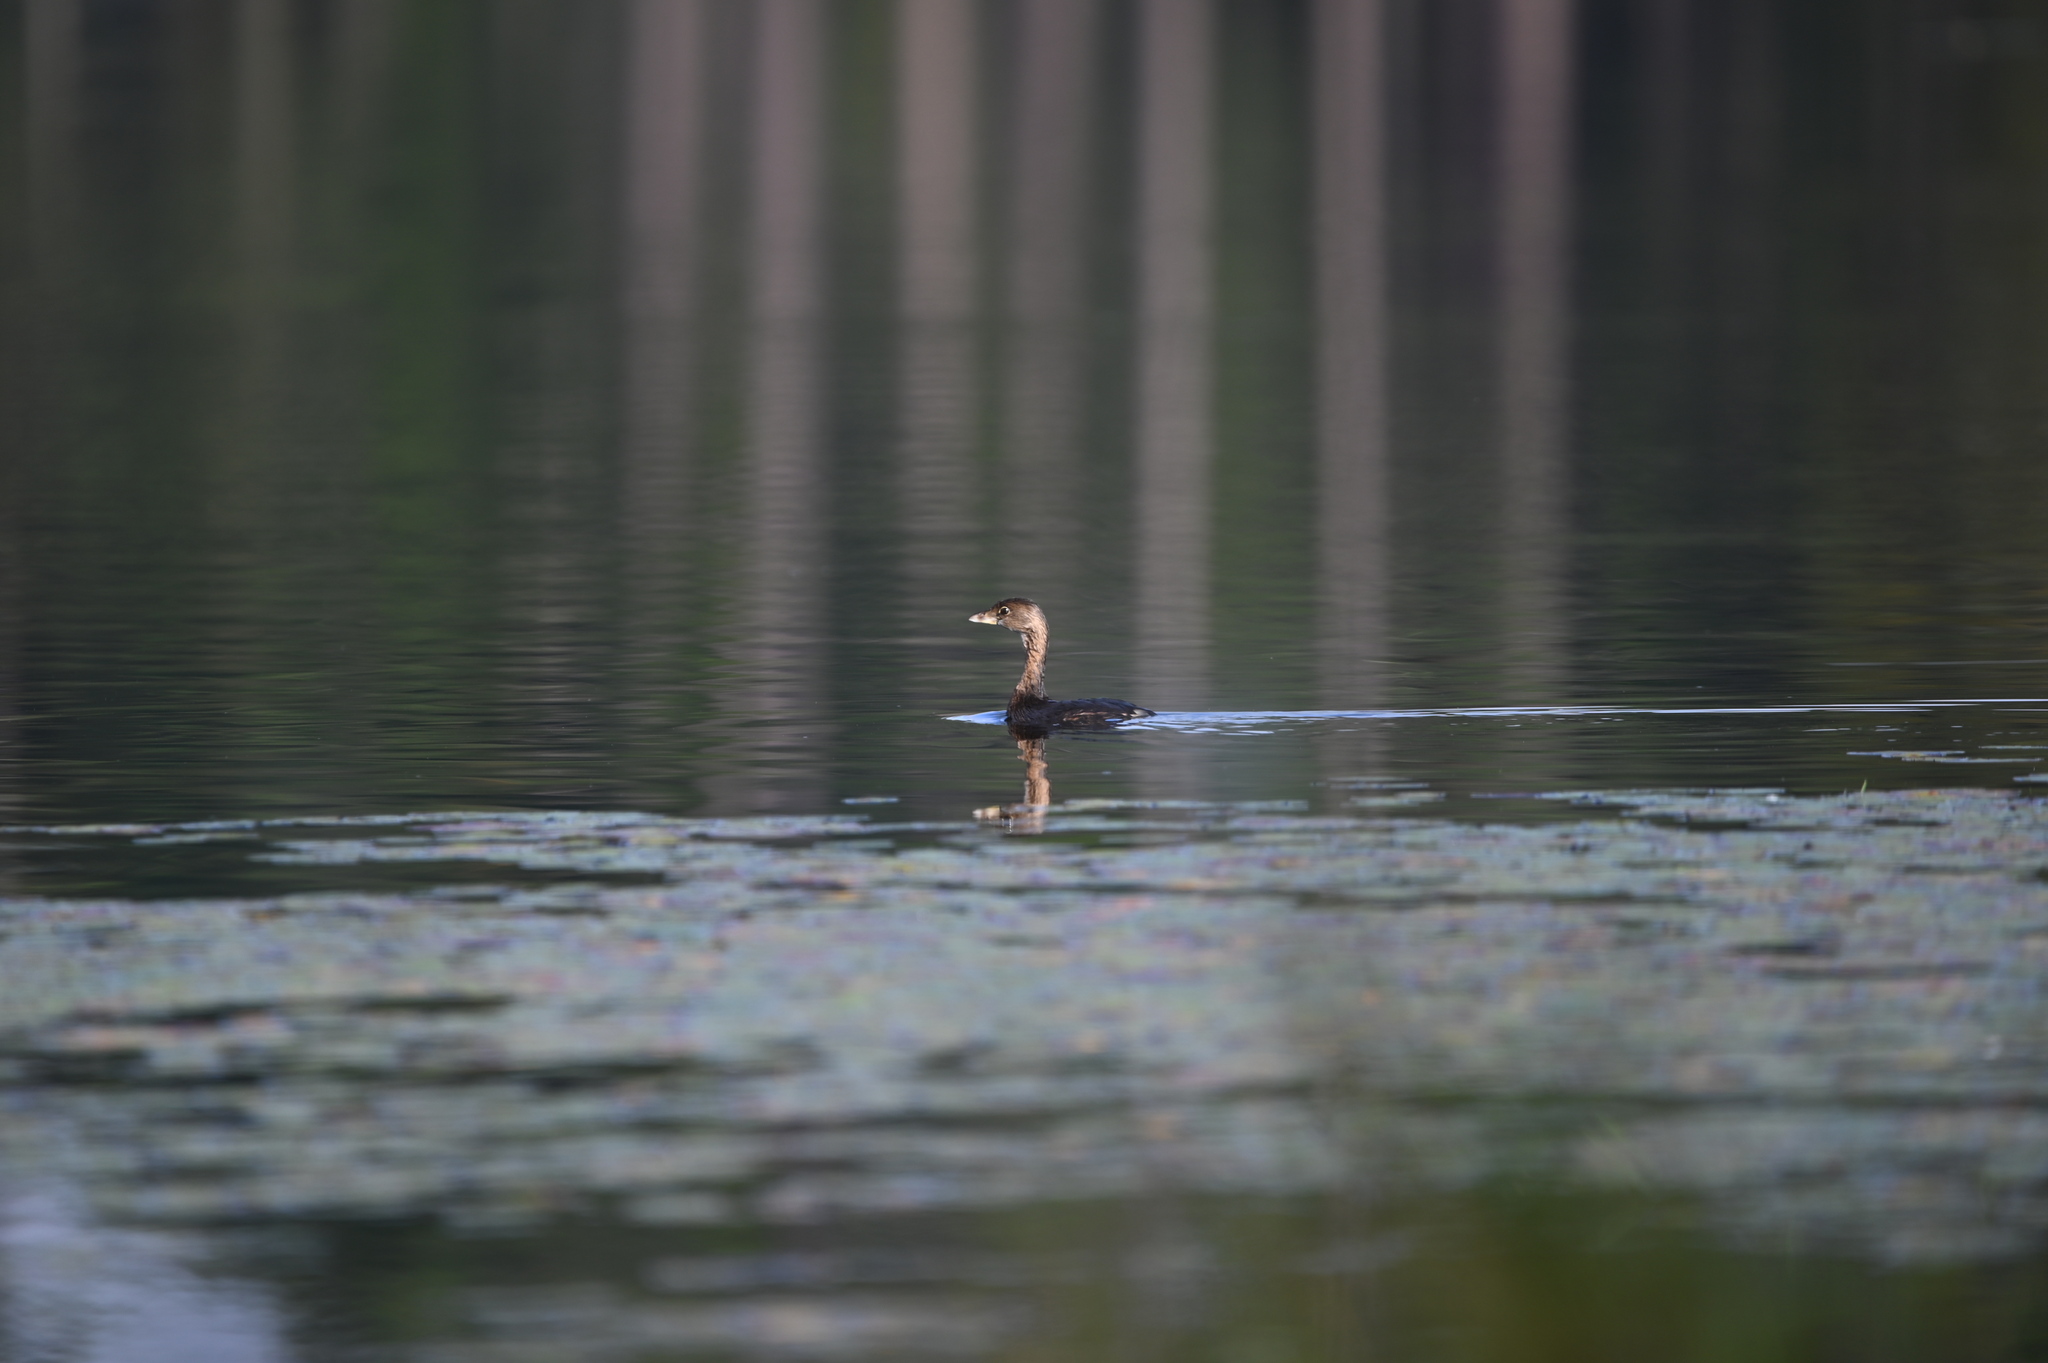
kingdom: Animalia
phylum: Chordata
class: Aves
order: Podicipediformes
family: Podicipedidae
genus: Podilymbus
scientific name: Podilymbus podiceps
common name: Pied-billed grebe
